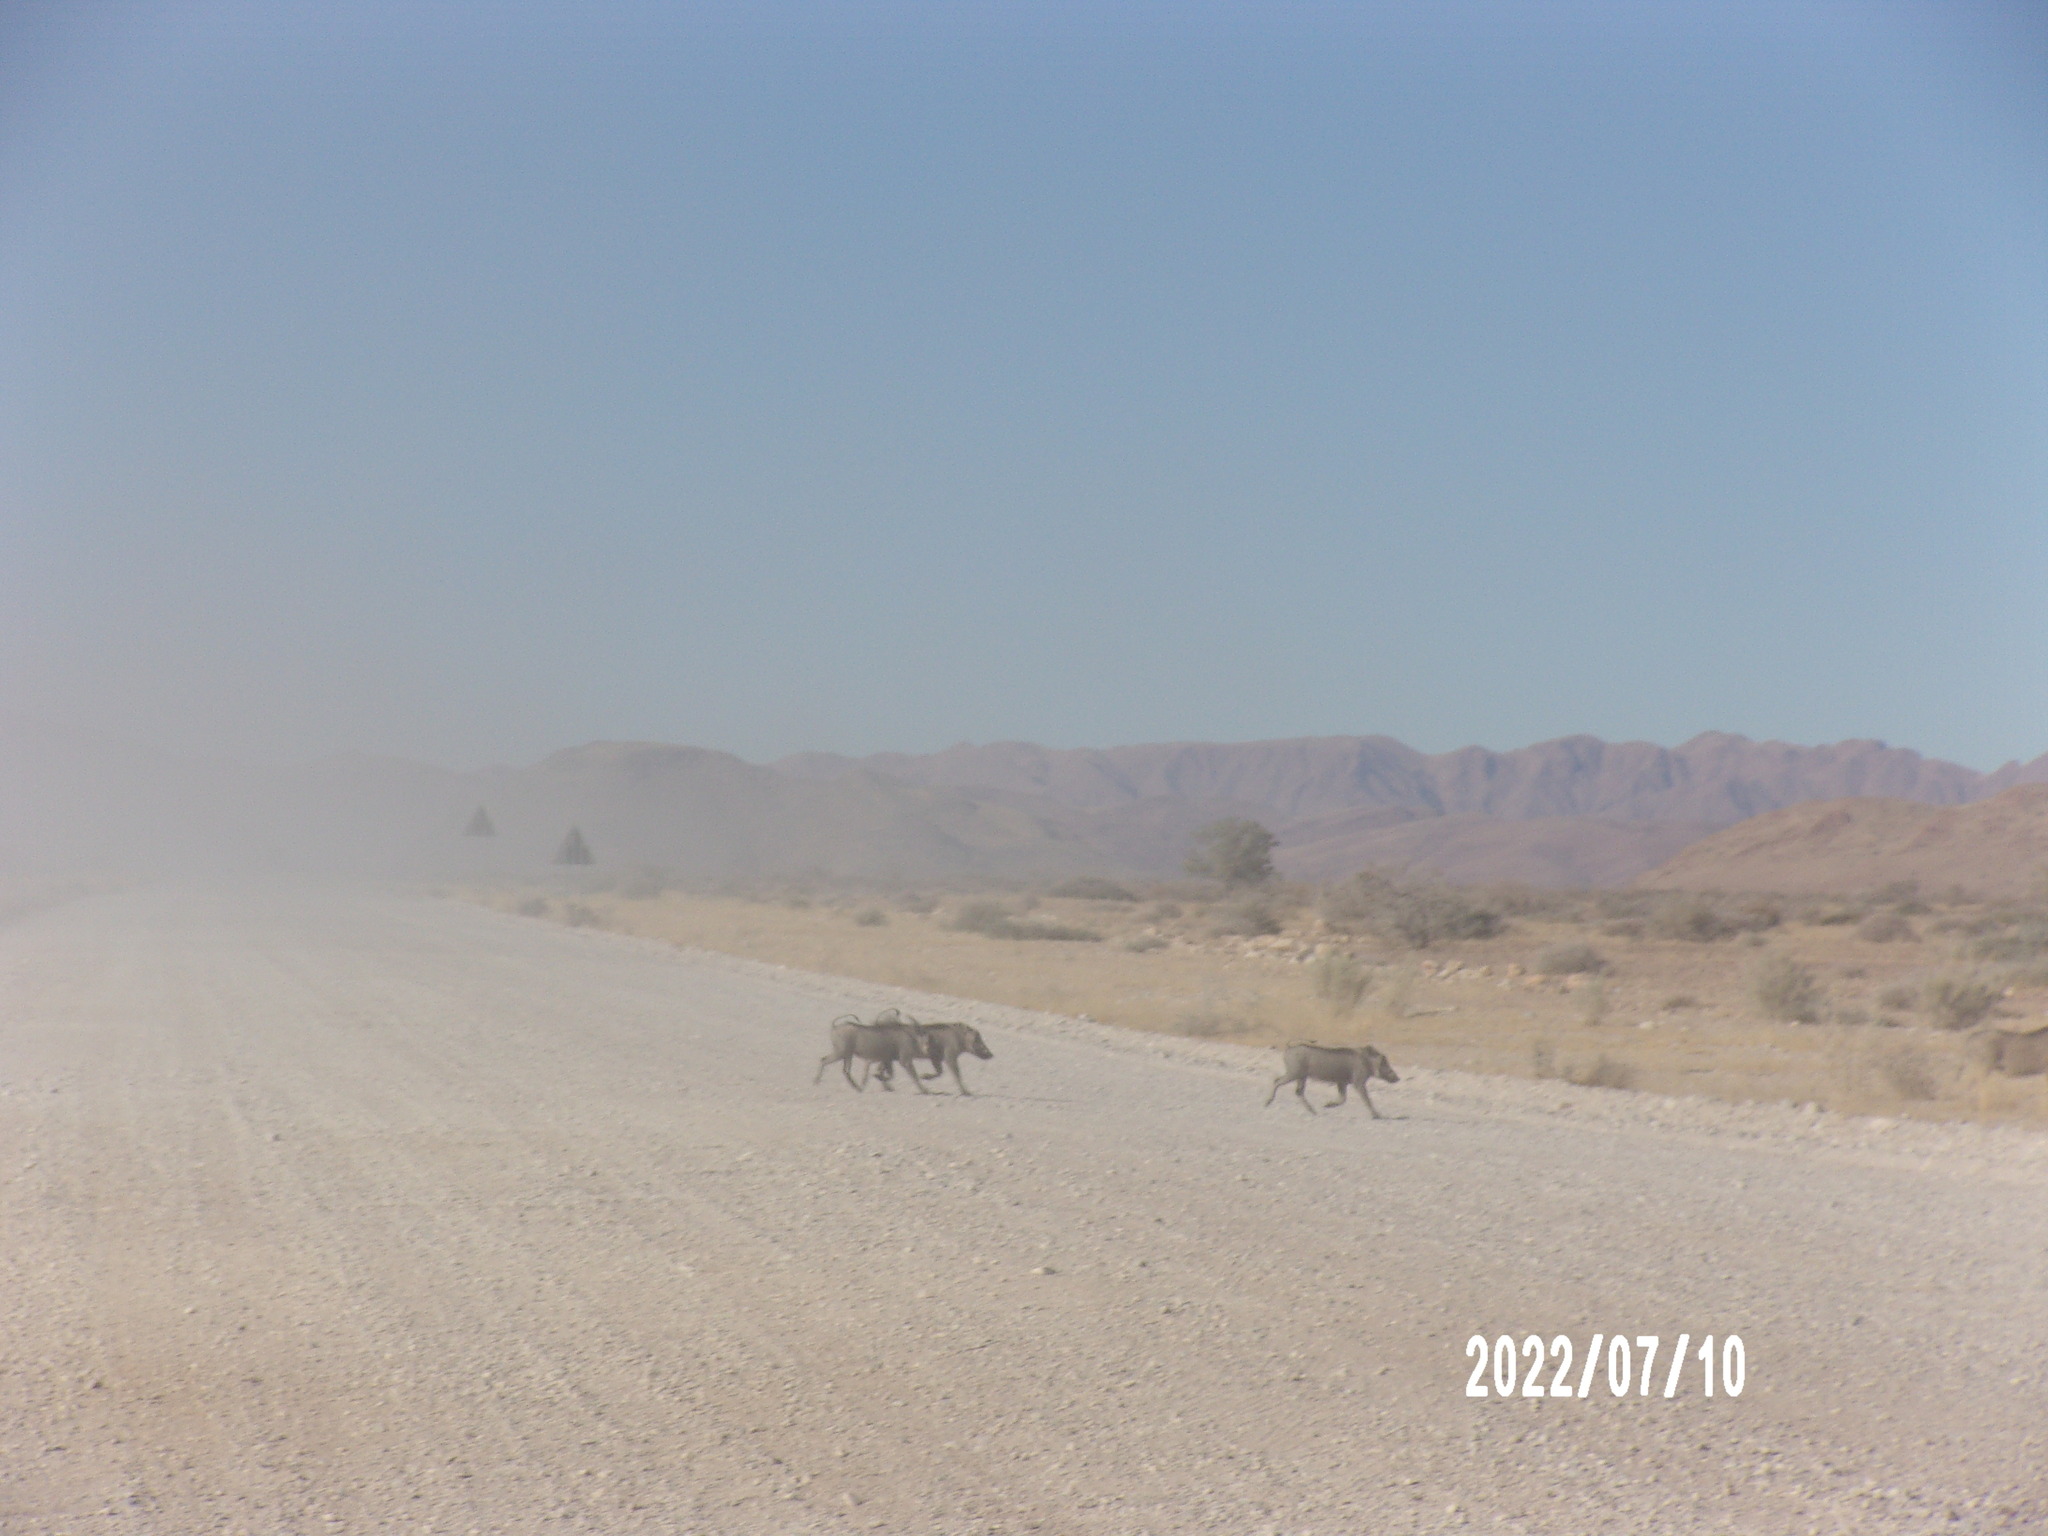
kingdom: Animalia
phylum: Chordata
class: Mammalia
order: Artiodactyla
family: Suidae
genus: Phacochoerus
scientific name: Phacochoerus africanus
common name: Common warthog
